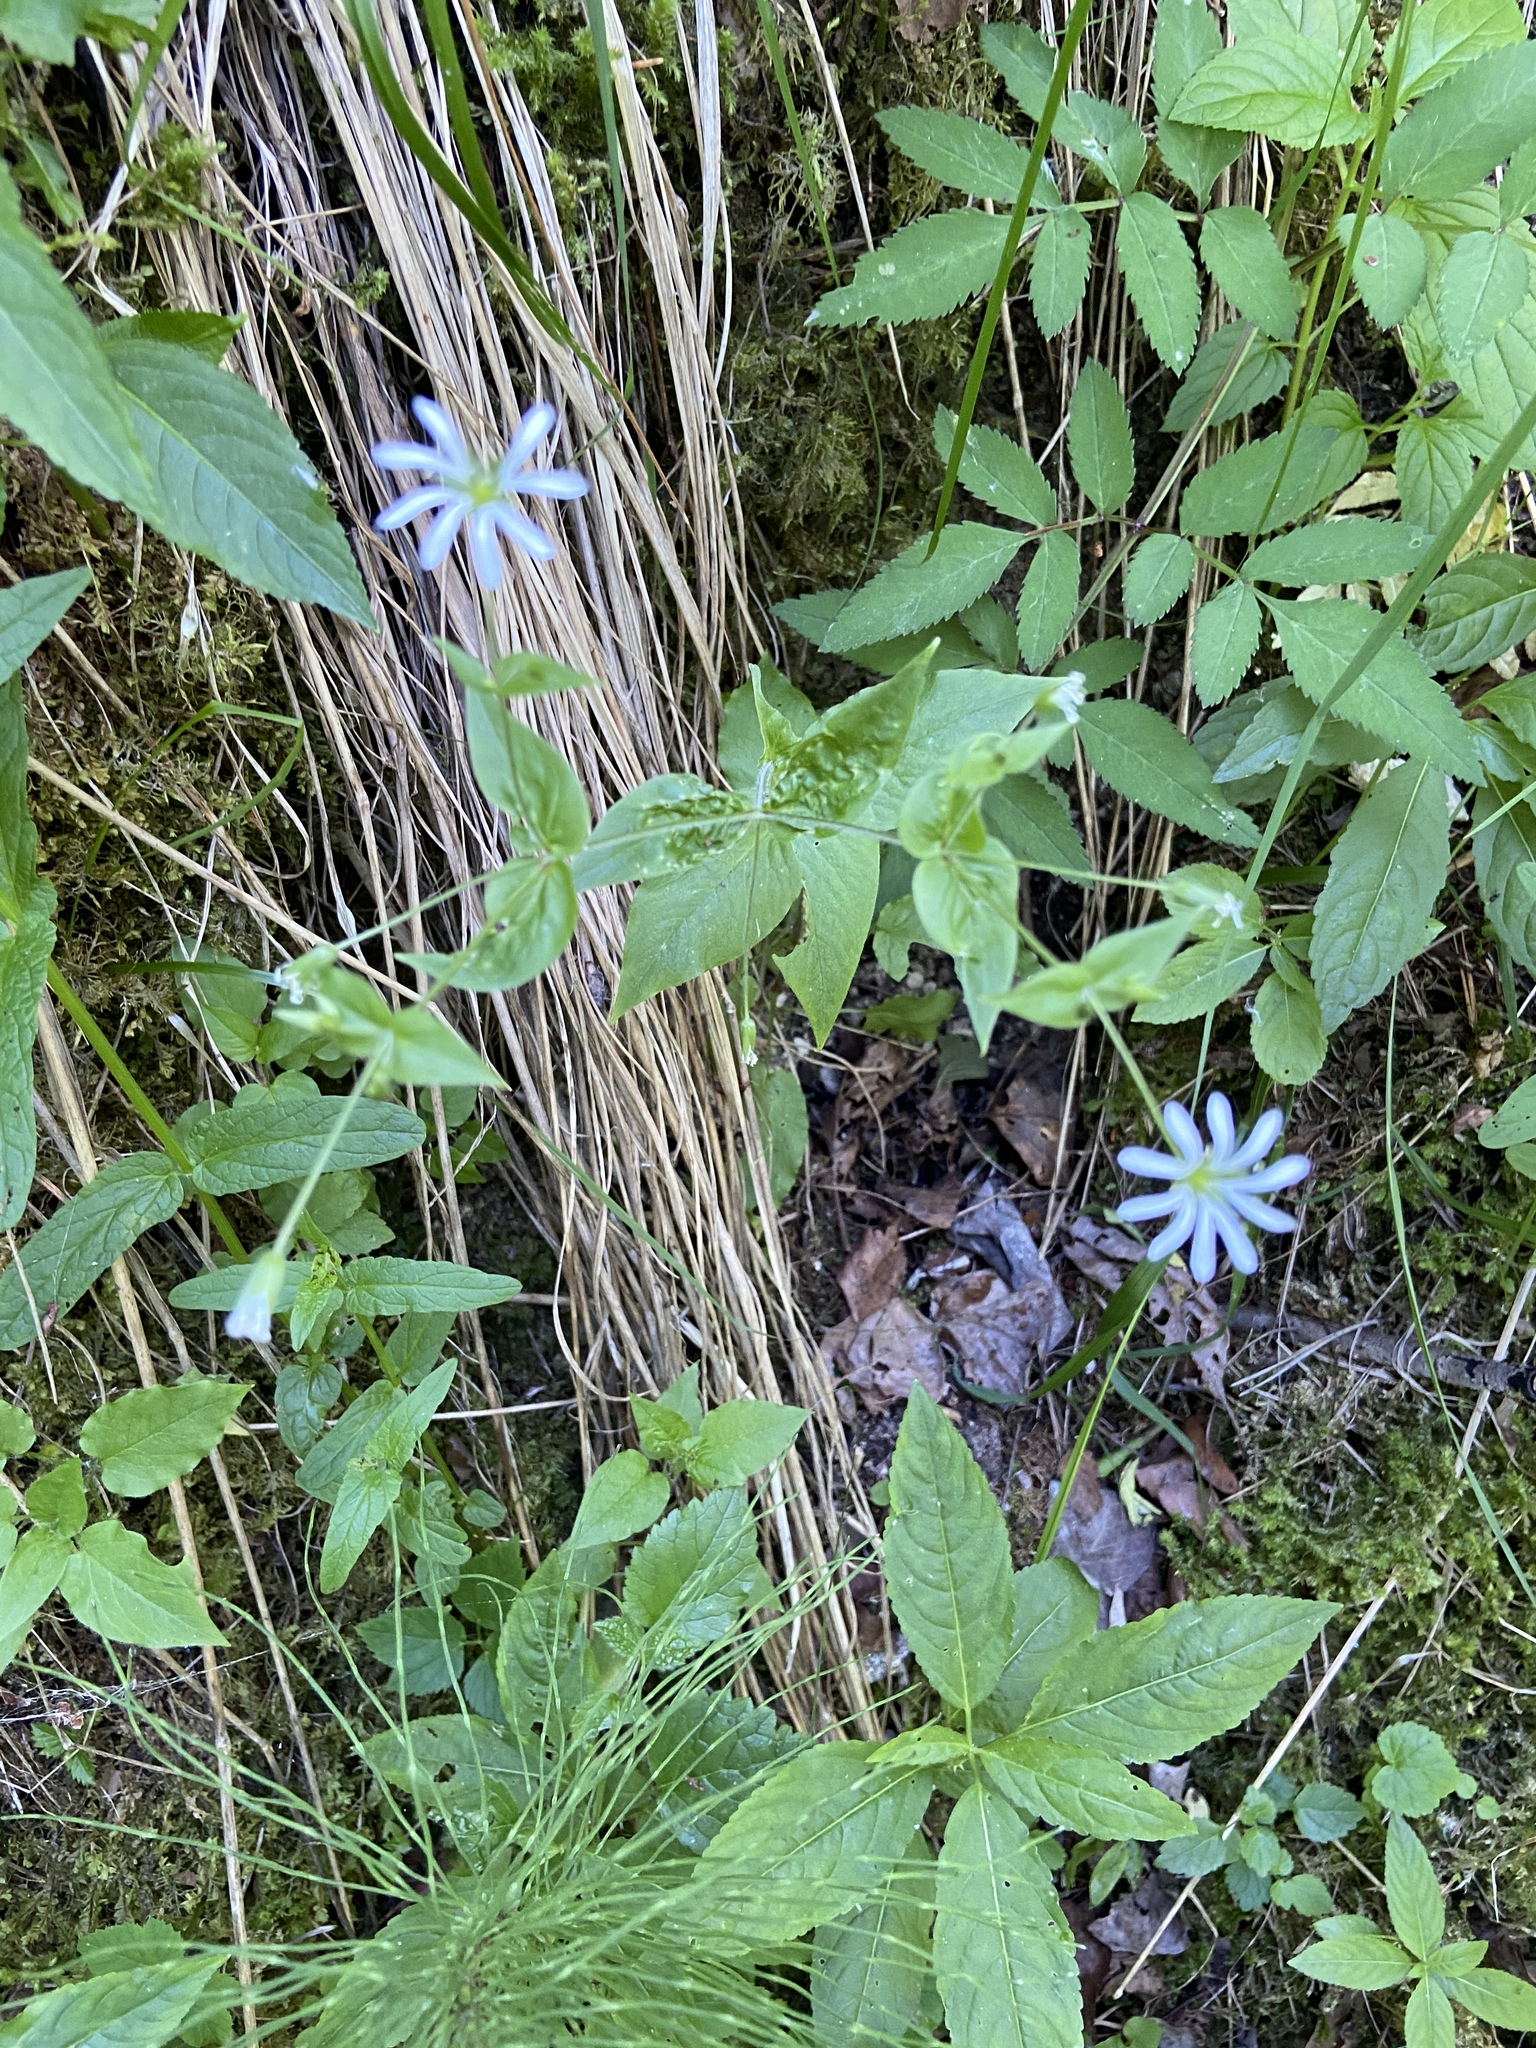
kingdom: Plantae
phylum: Tracheophyta
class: Magnoliopsida
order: Caryophyllales
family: Caryophyllaceae
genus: Stellaria
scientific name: Stellaria nemorum
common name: Wood stitchwort
